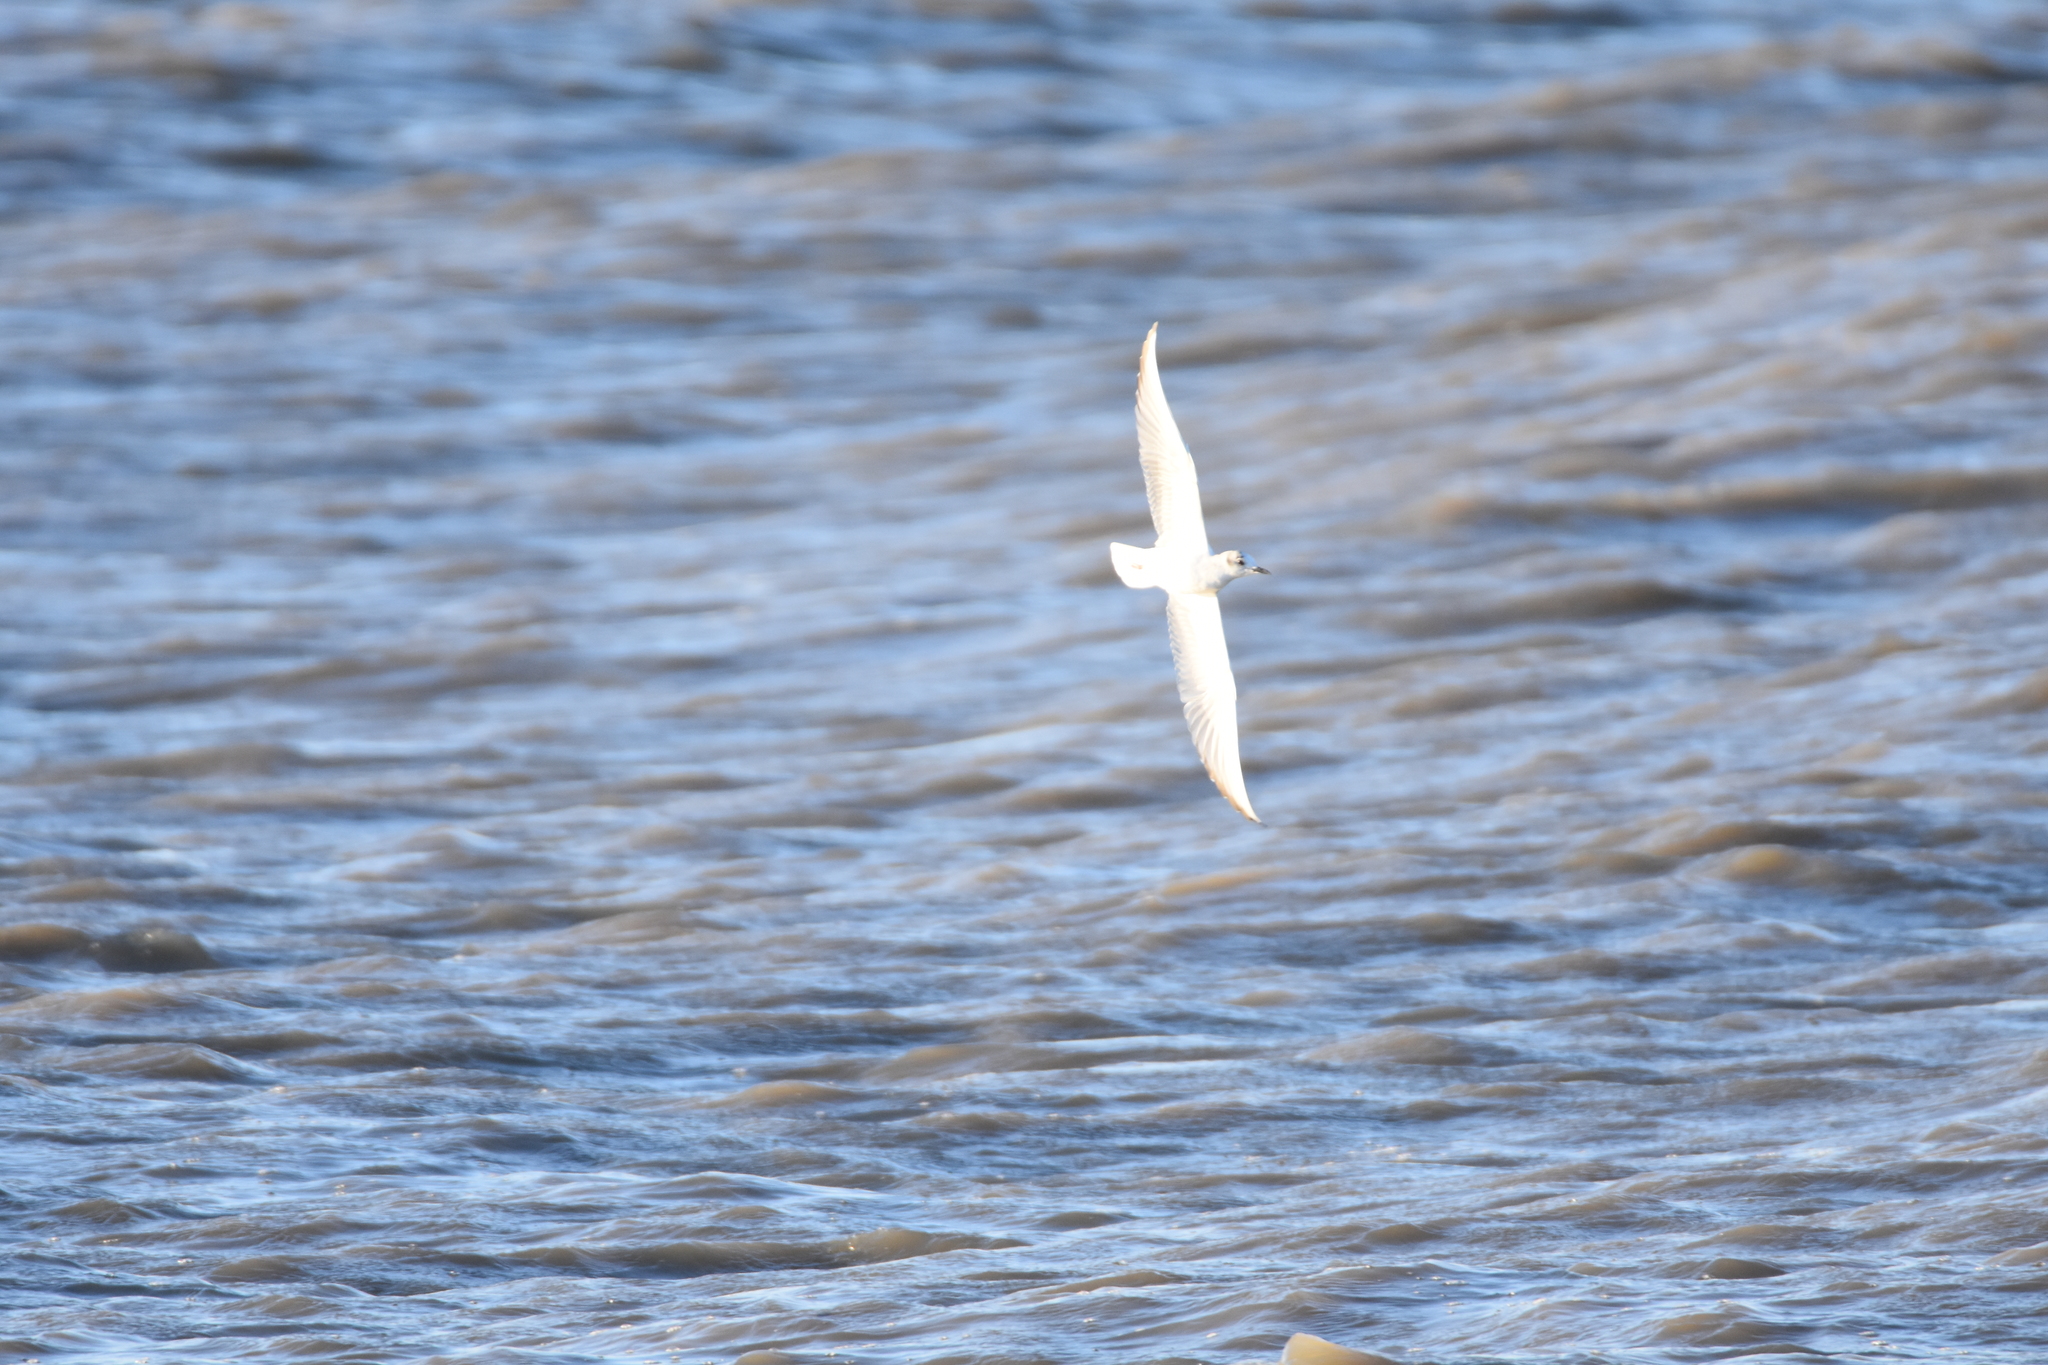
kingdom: Animalia
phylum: Chordata
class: Aves
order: Charadriiformes
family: Laridae
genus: Chroicocephalus
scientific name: Chroicocephalus philadelphia
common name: Bonaparte's gull
